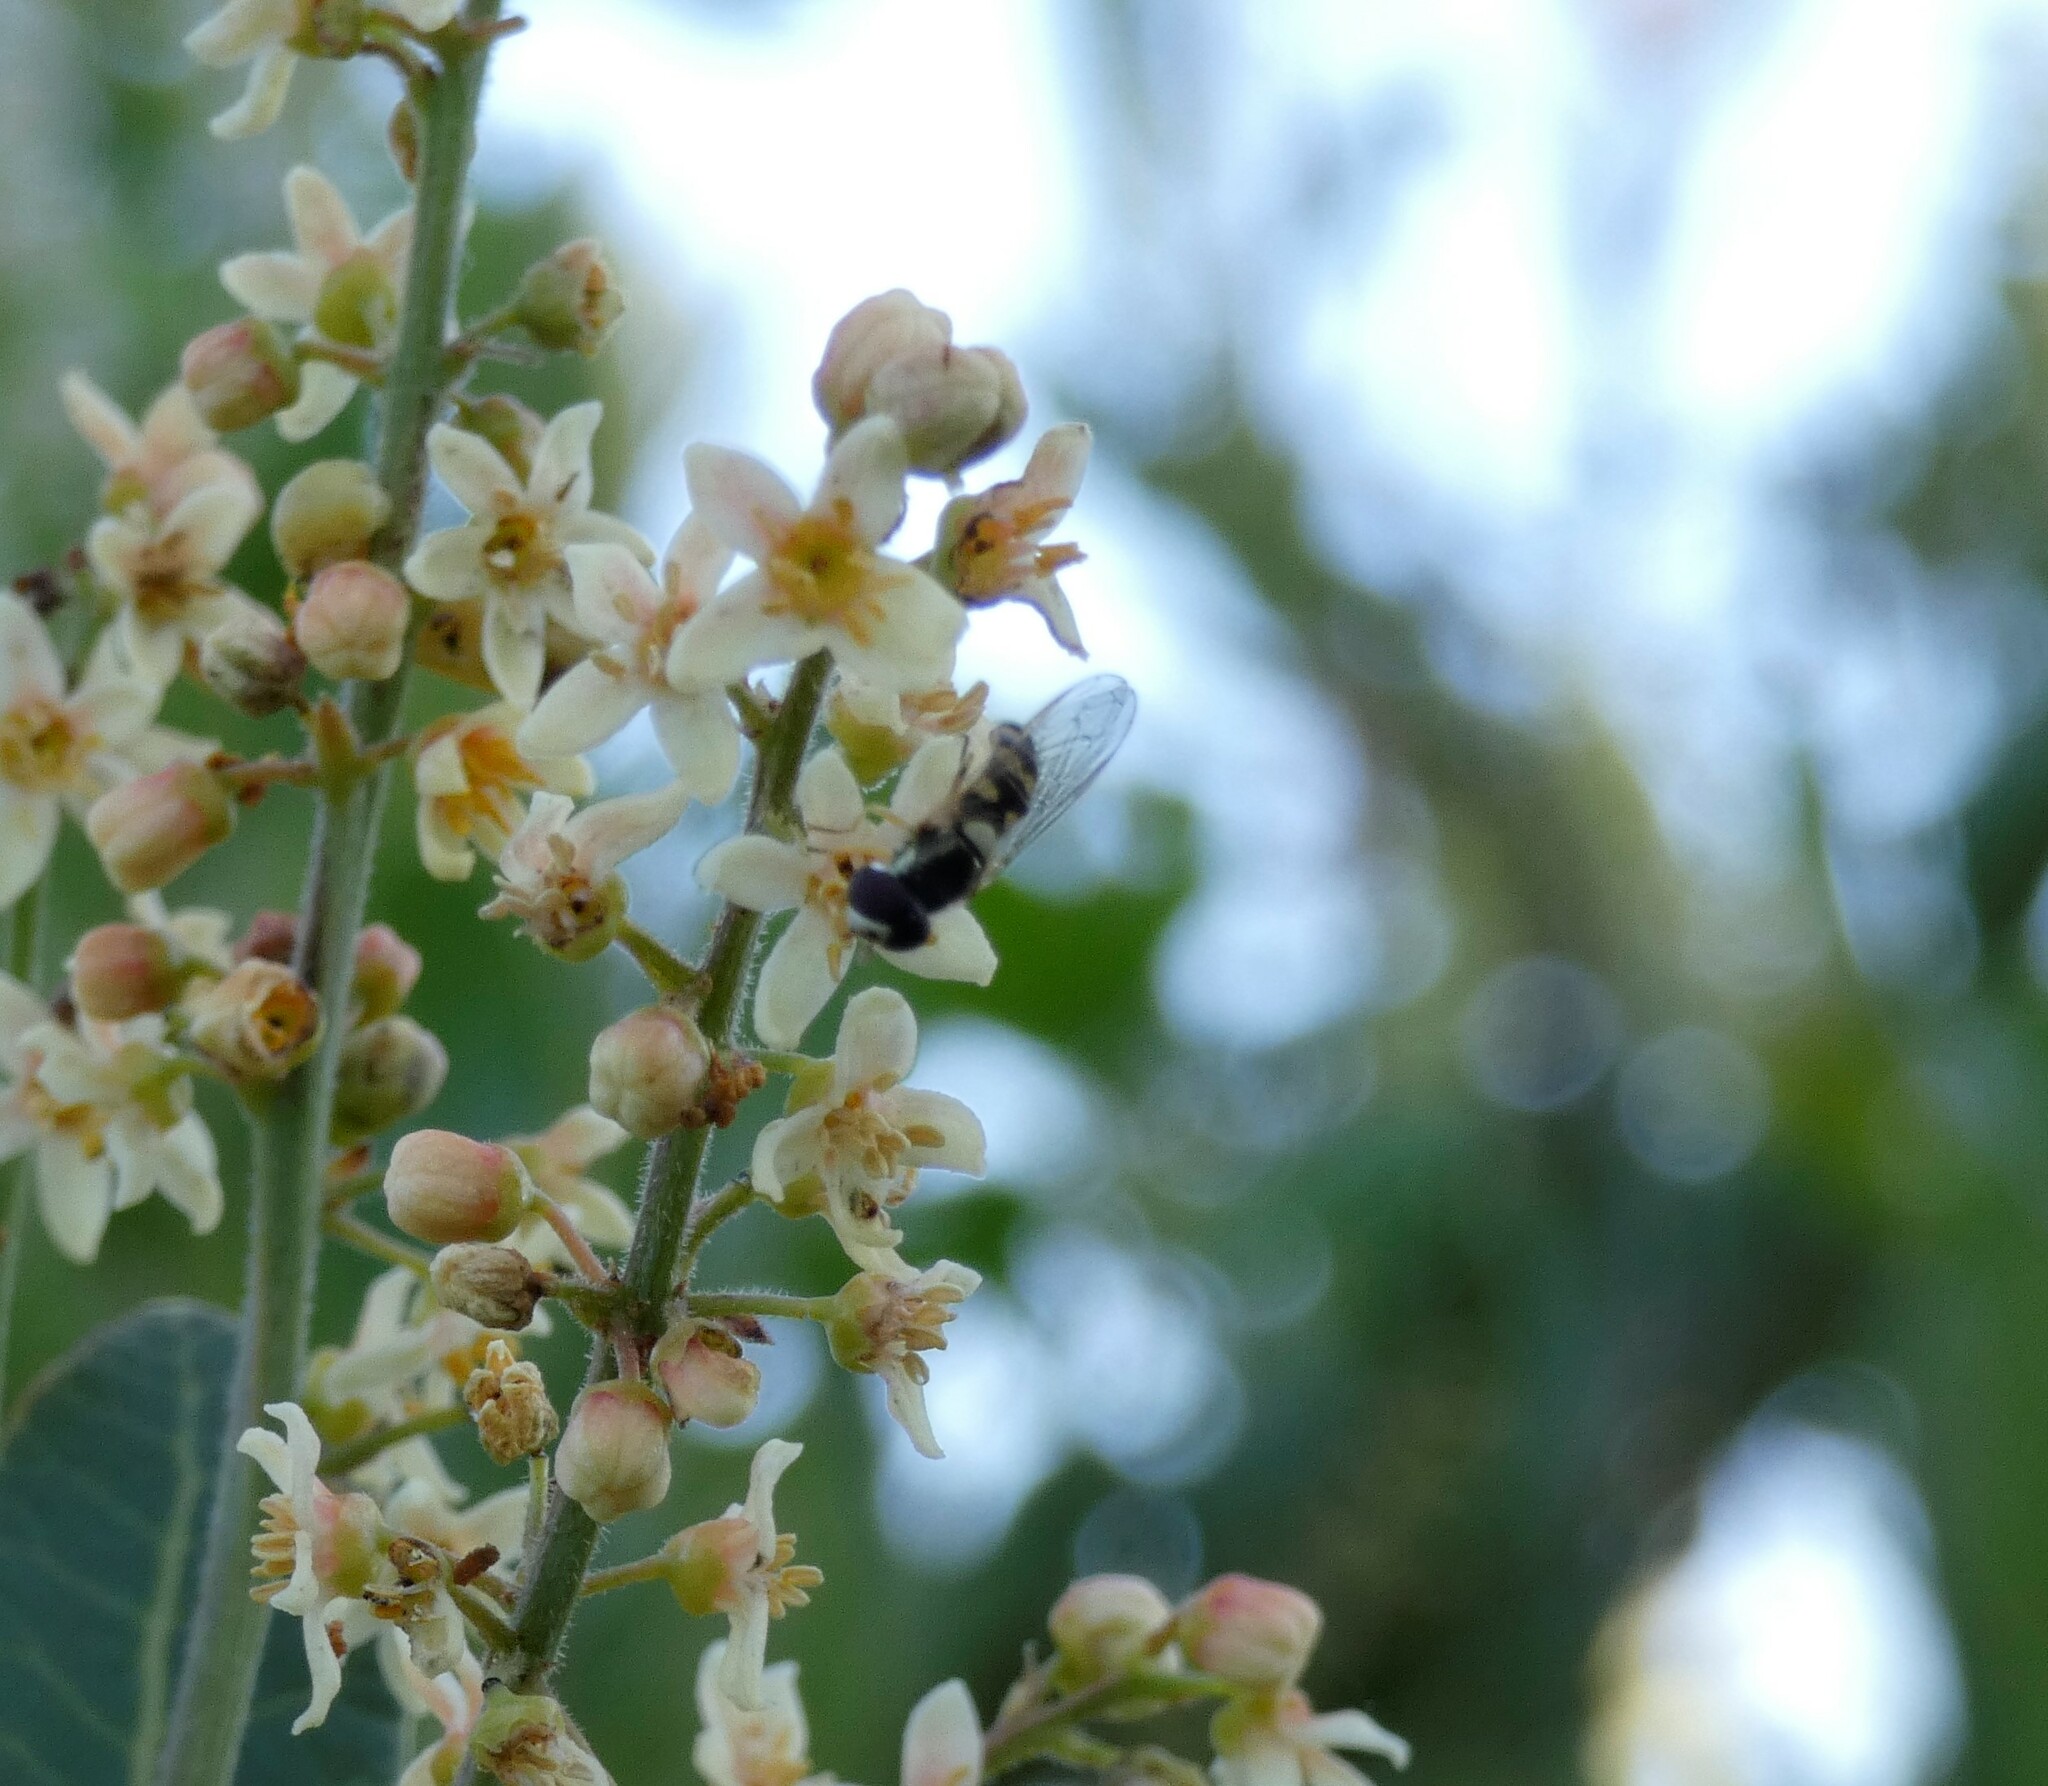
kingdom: Animalia
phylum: Arthropoda
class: Insecta
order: Diptera
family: Syrphidae
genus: Allograpta
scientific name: Allograpta pulchra
